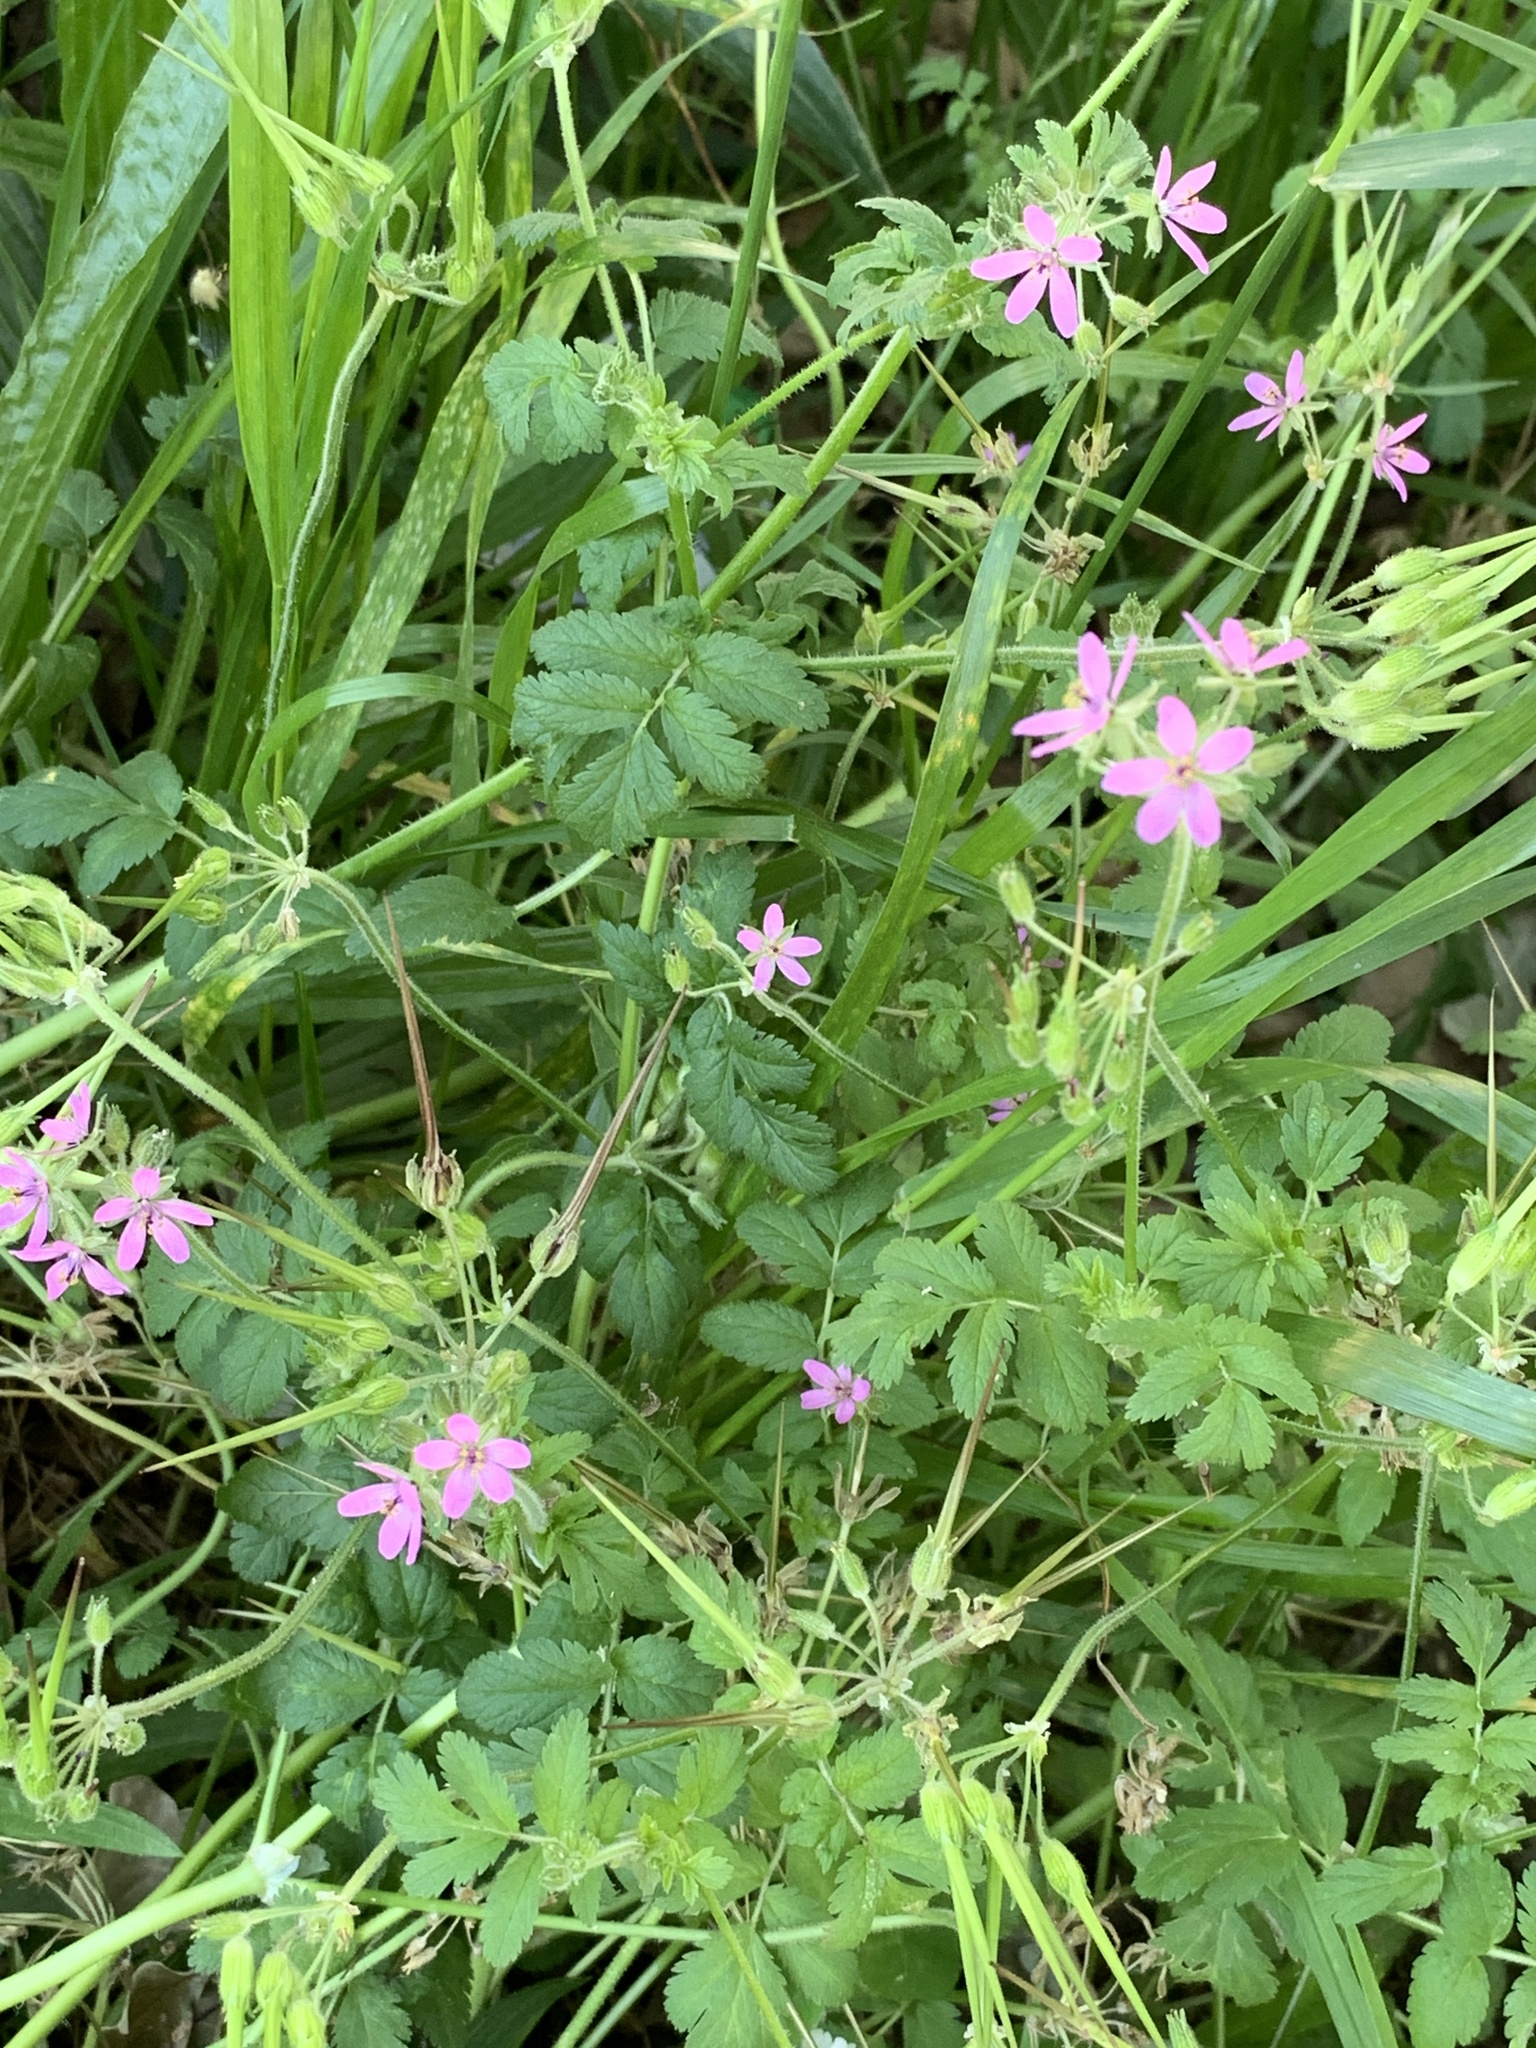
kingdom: Plantae
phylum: Tracheophyta
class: Magnoliopsida
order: Geraniales
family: Geraniaceae
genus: Erodium
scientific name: Erodium moschatum
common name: Musk stork's-bill
